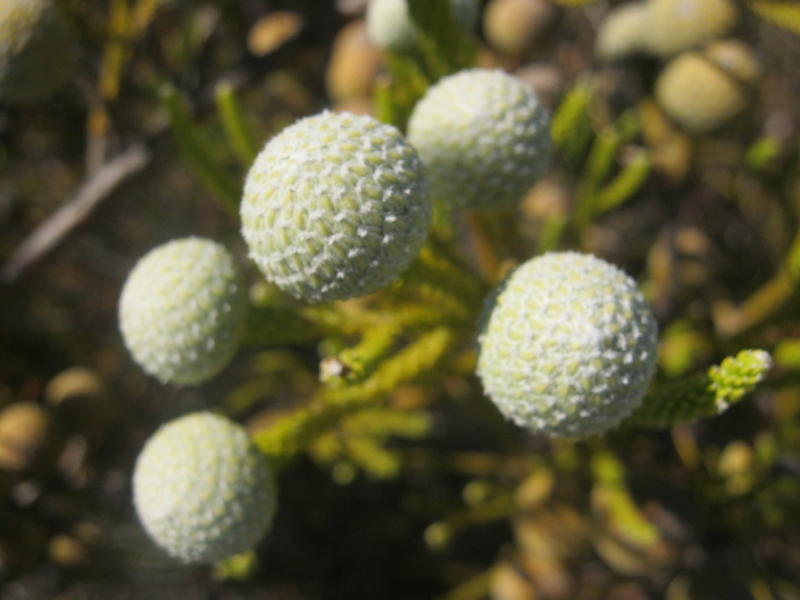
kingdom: Plantae
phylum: Tracheophyta
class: Magnoliopsida
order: Bruniales
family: Bruniaceae
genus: Brunia
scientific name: Brunia noduliflora
